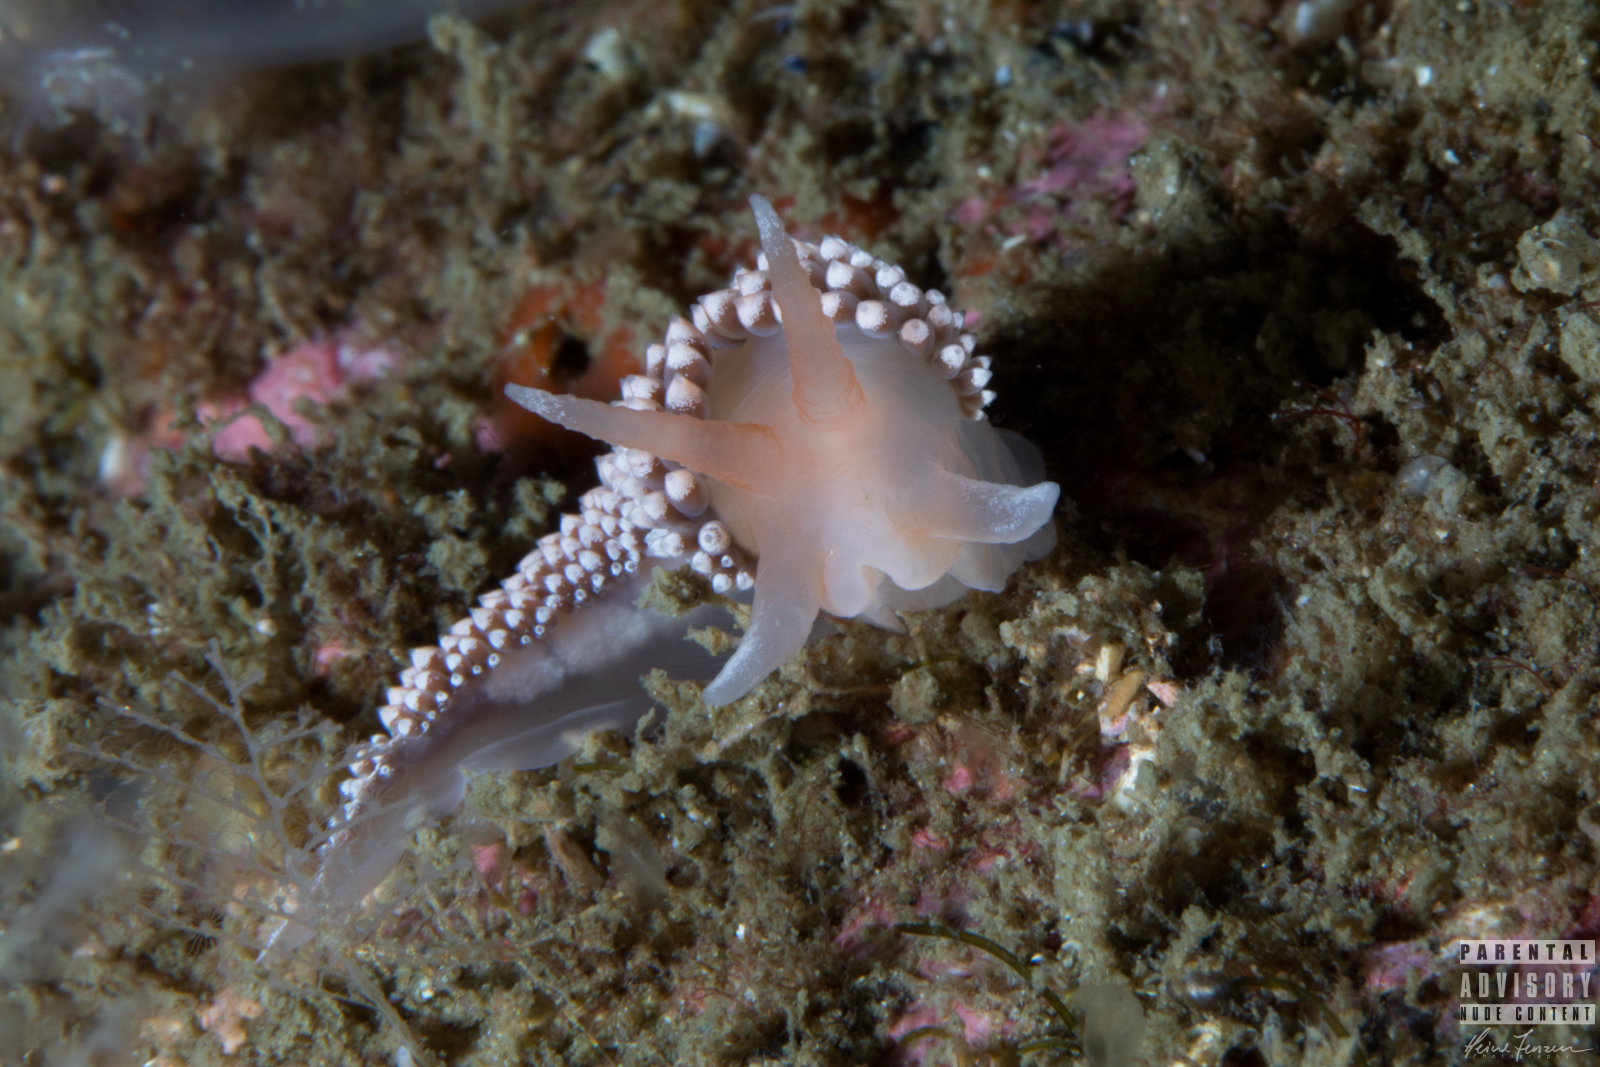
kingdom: Animalia
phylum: Mollusca
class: Gastropoda
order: Nudibranchia
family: Coryphellidae
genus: Coryphella
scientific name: Coryphella verrucosa
